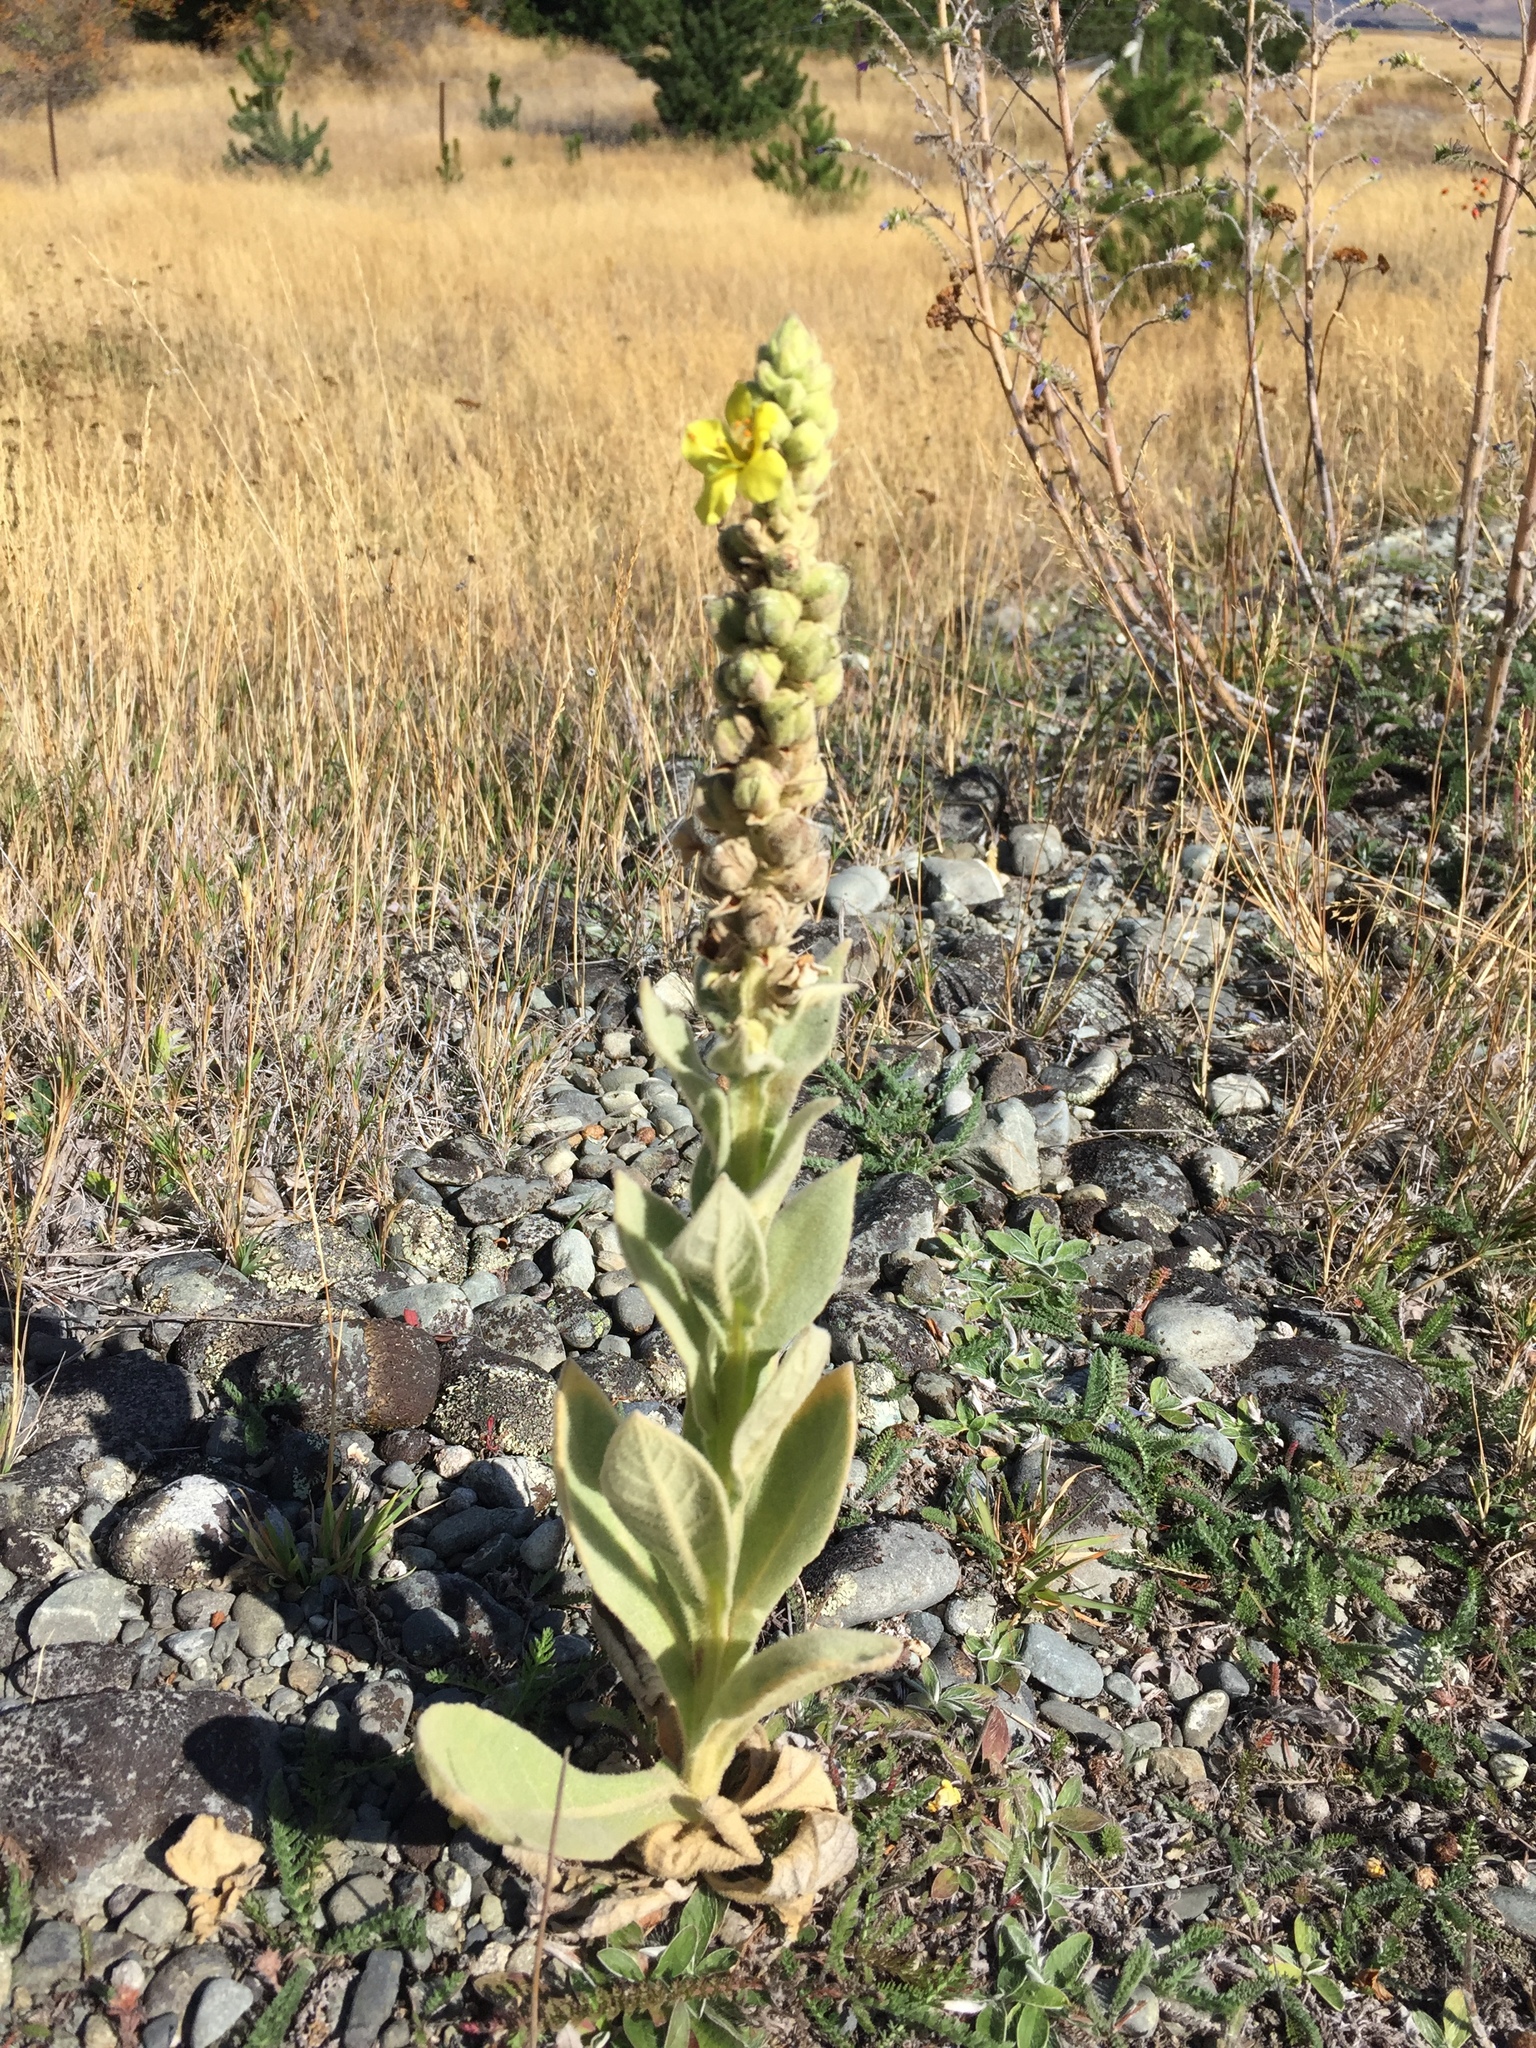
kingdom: Plantae
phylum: Tracheophyta
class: Magnoliopsida
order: Lamiales
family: Scrophulariaceae
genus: Verbascum
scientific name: Verbascum thapsus
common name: Common mullein
